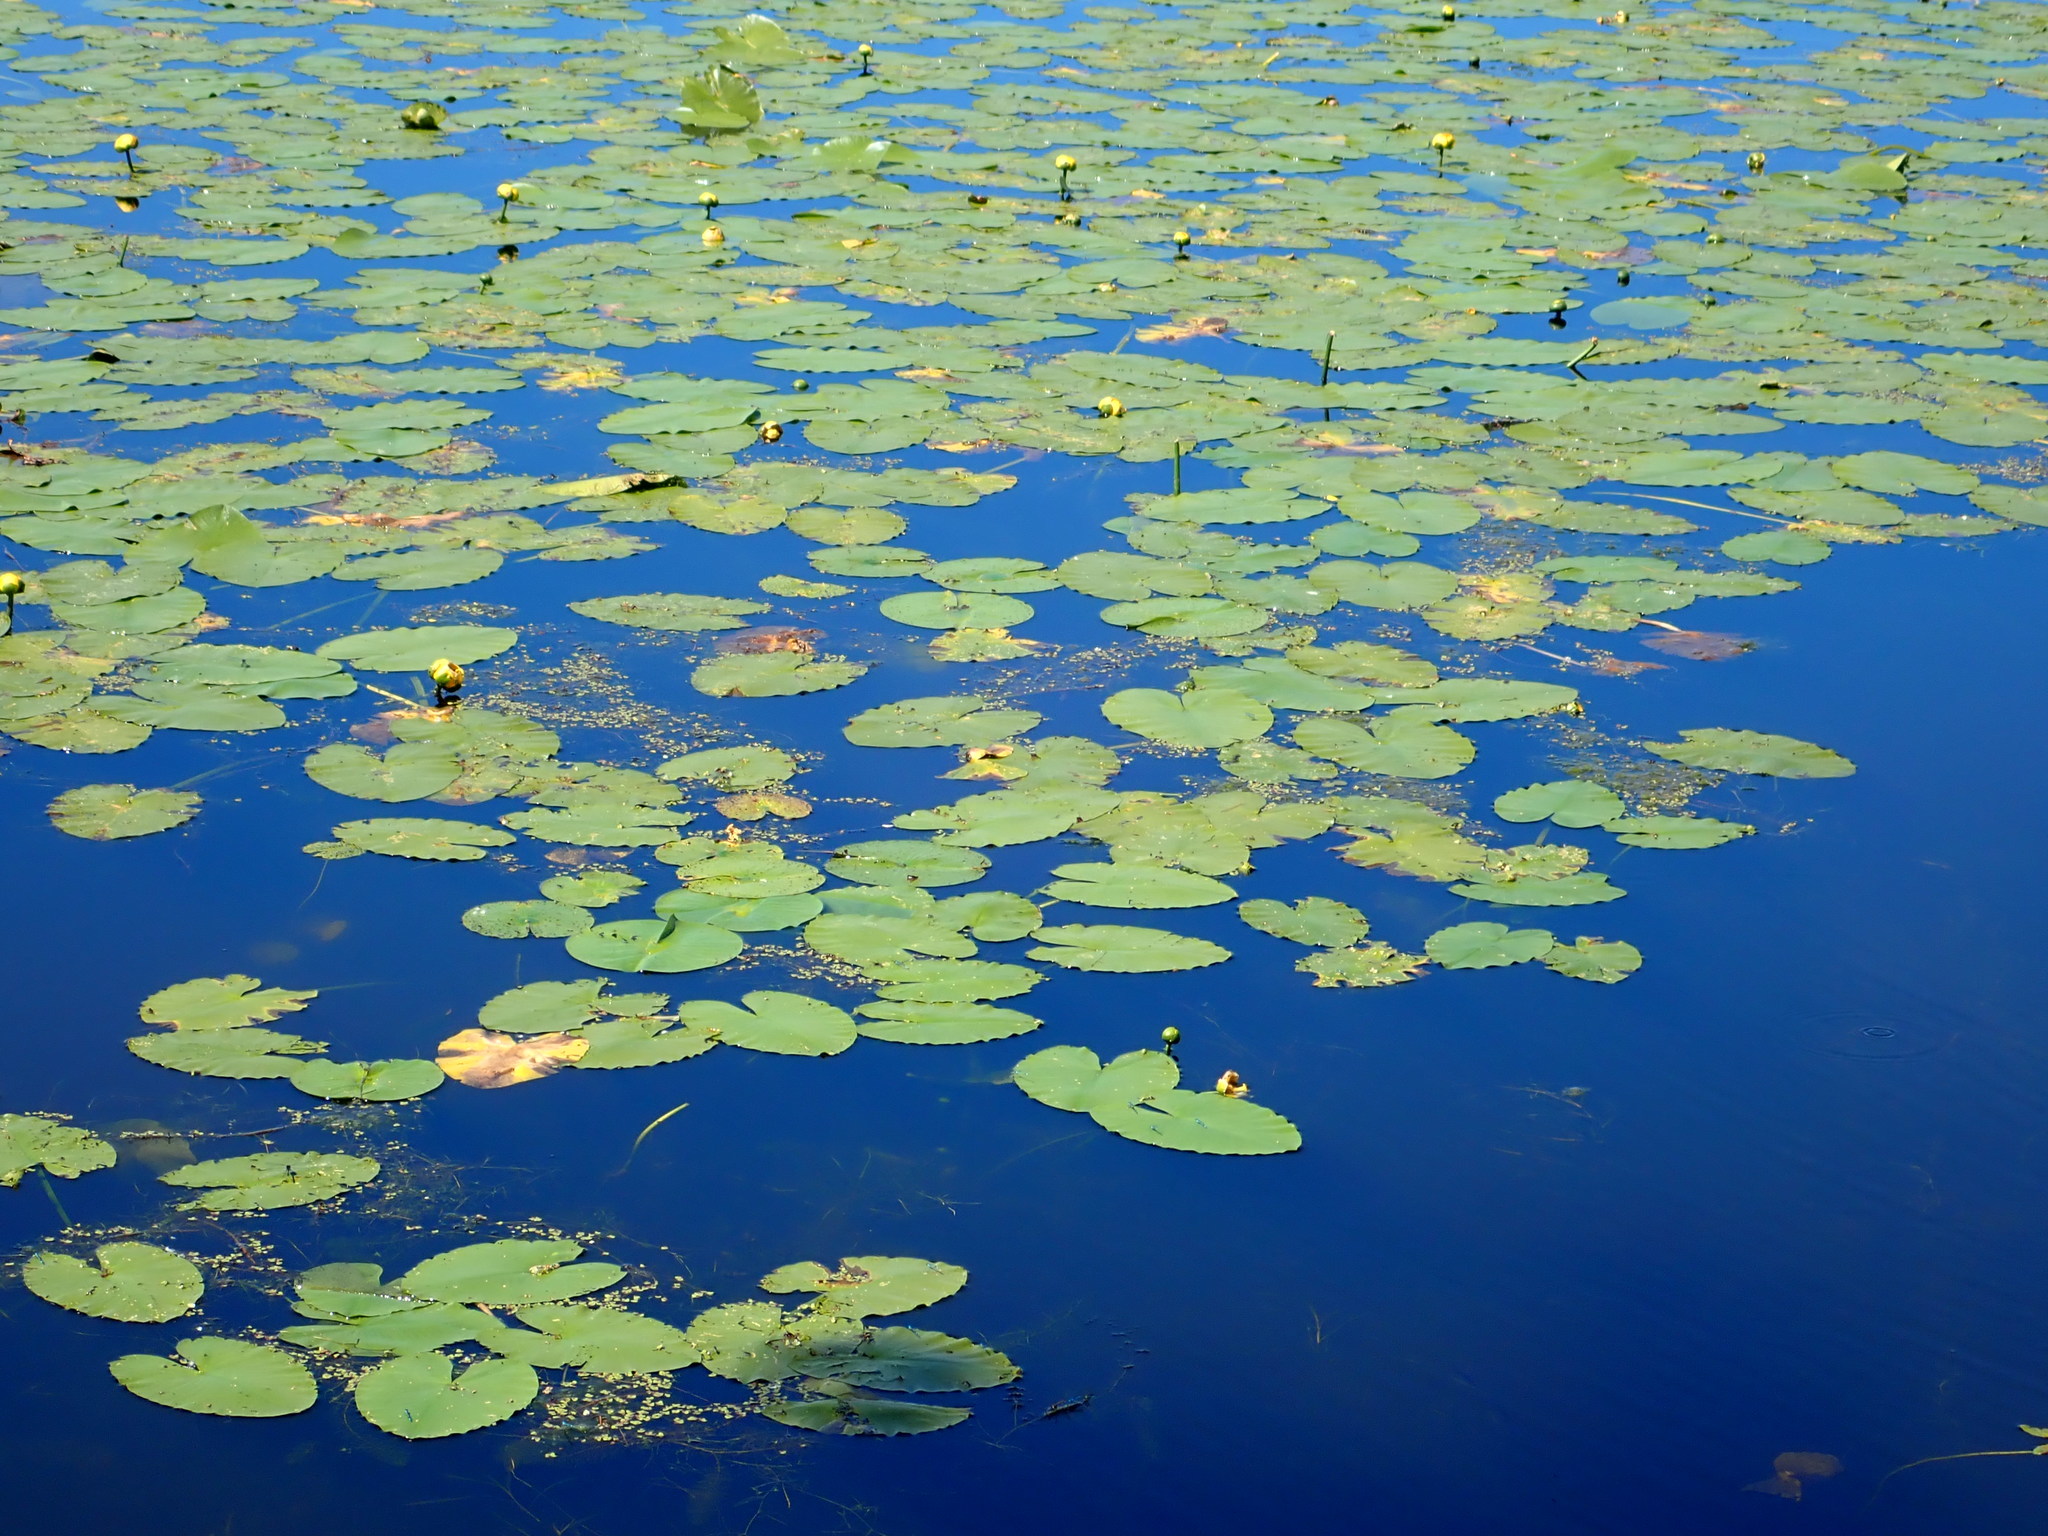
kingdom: Plantae
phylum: Tracheophyta
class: Magnoliopsida
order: Nymphaeales
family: Nymphaeaceae
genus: Nuphar
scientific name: Nuphar variegata
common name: Beaver-root
